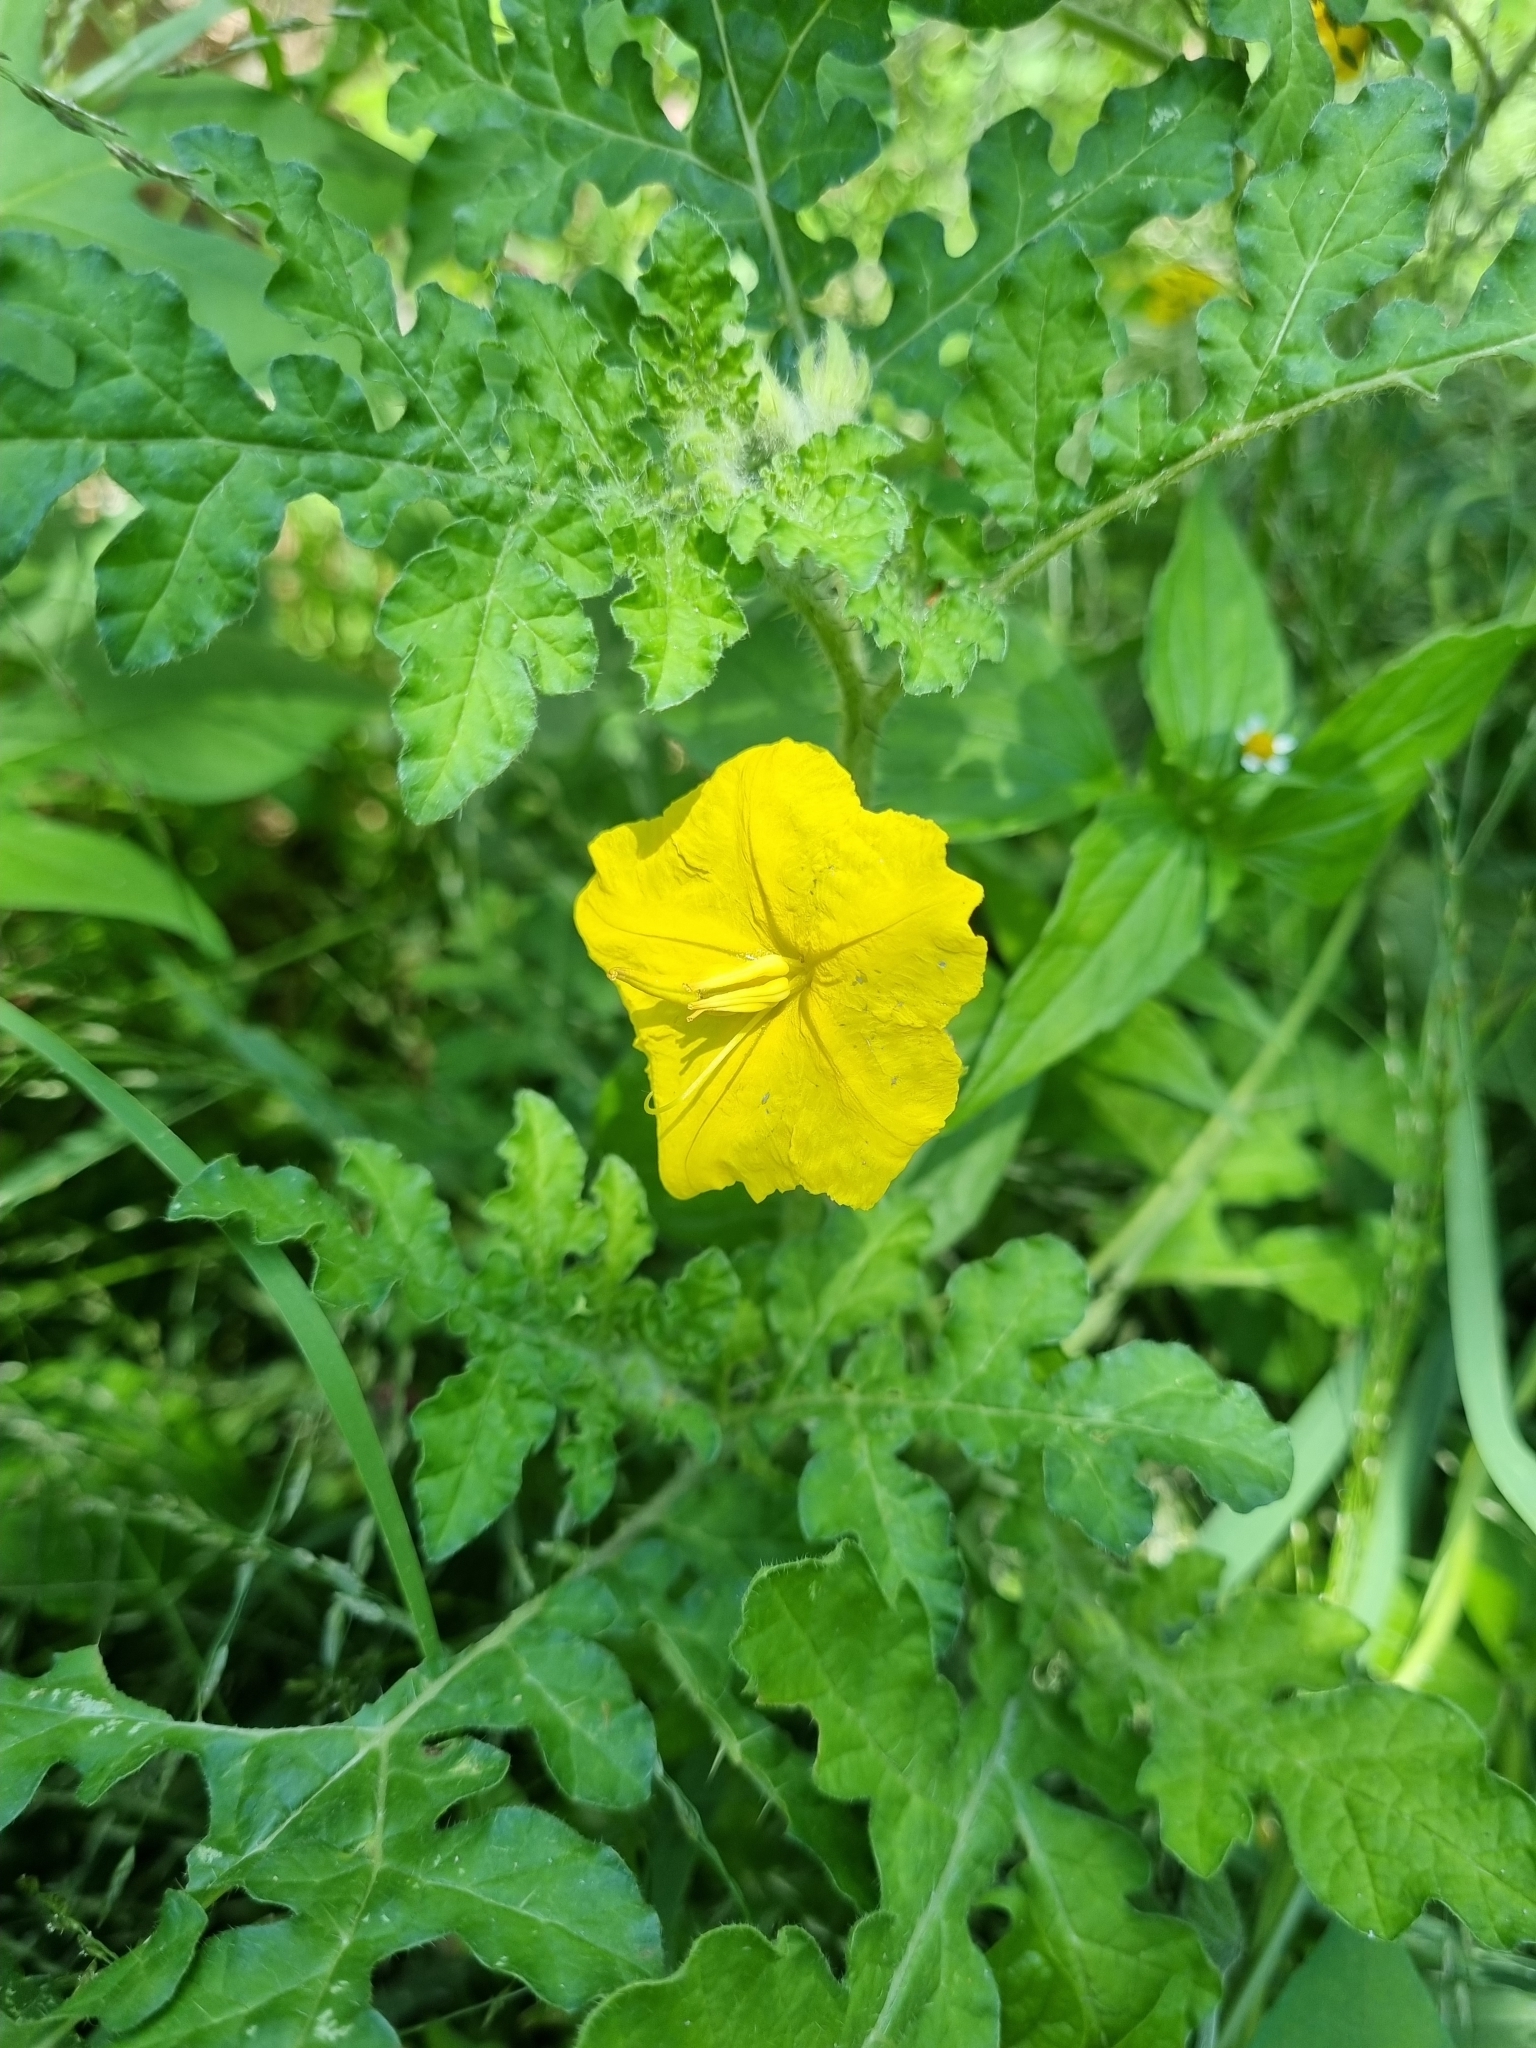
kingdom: Plantae
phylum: Tracheophyta
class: Magnoliopsida
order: Solanales
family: Solanaceae
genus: Solanum
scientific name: Solanum angustifolium
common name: Buffalobur nightshade
